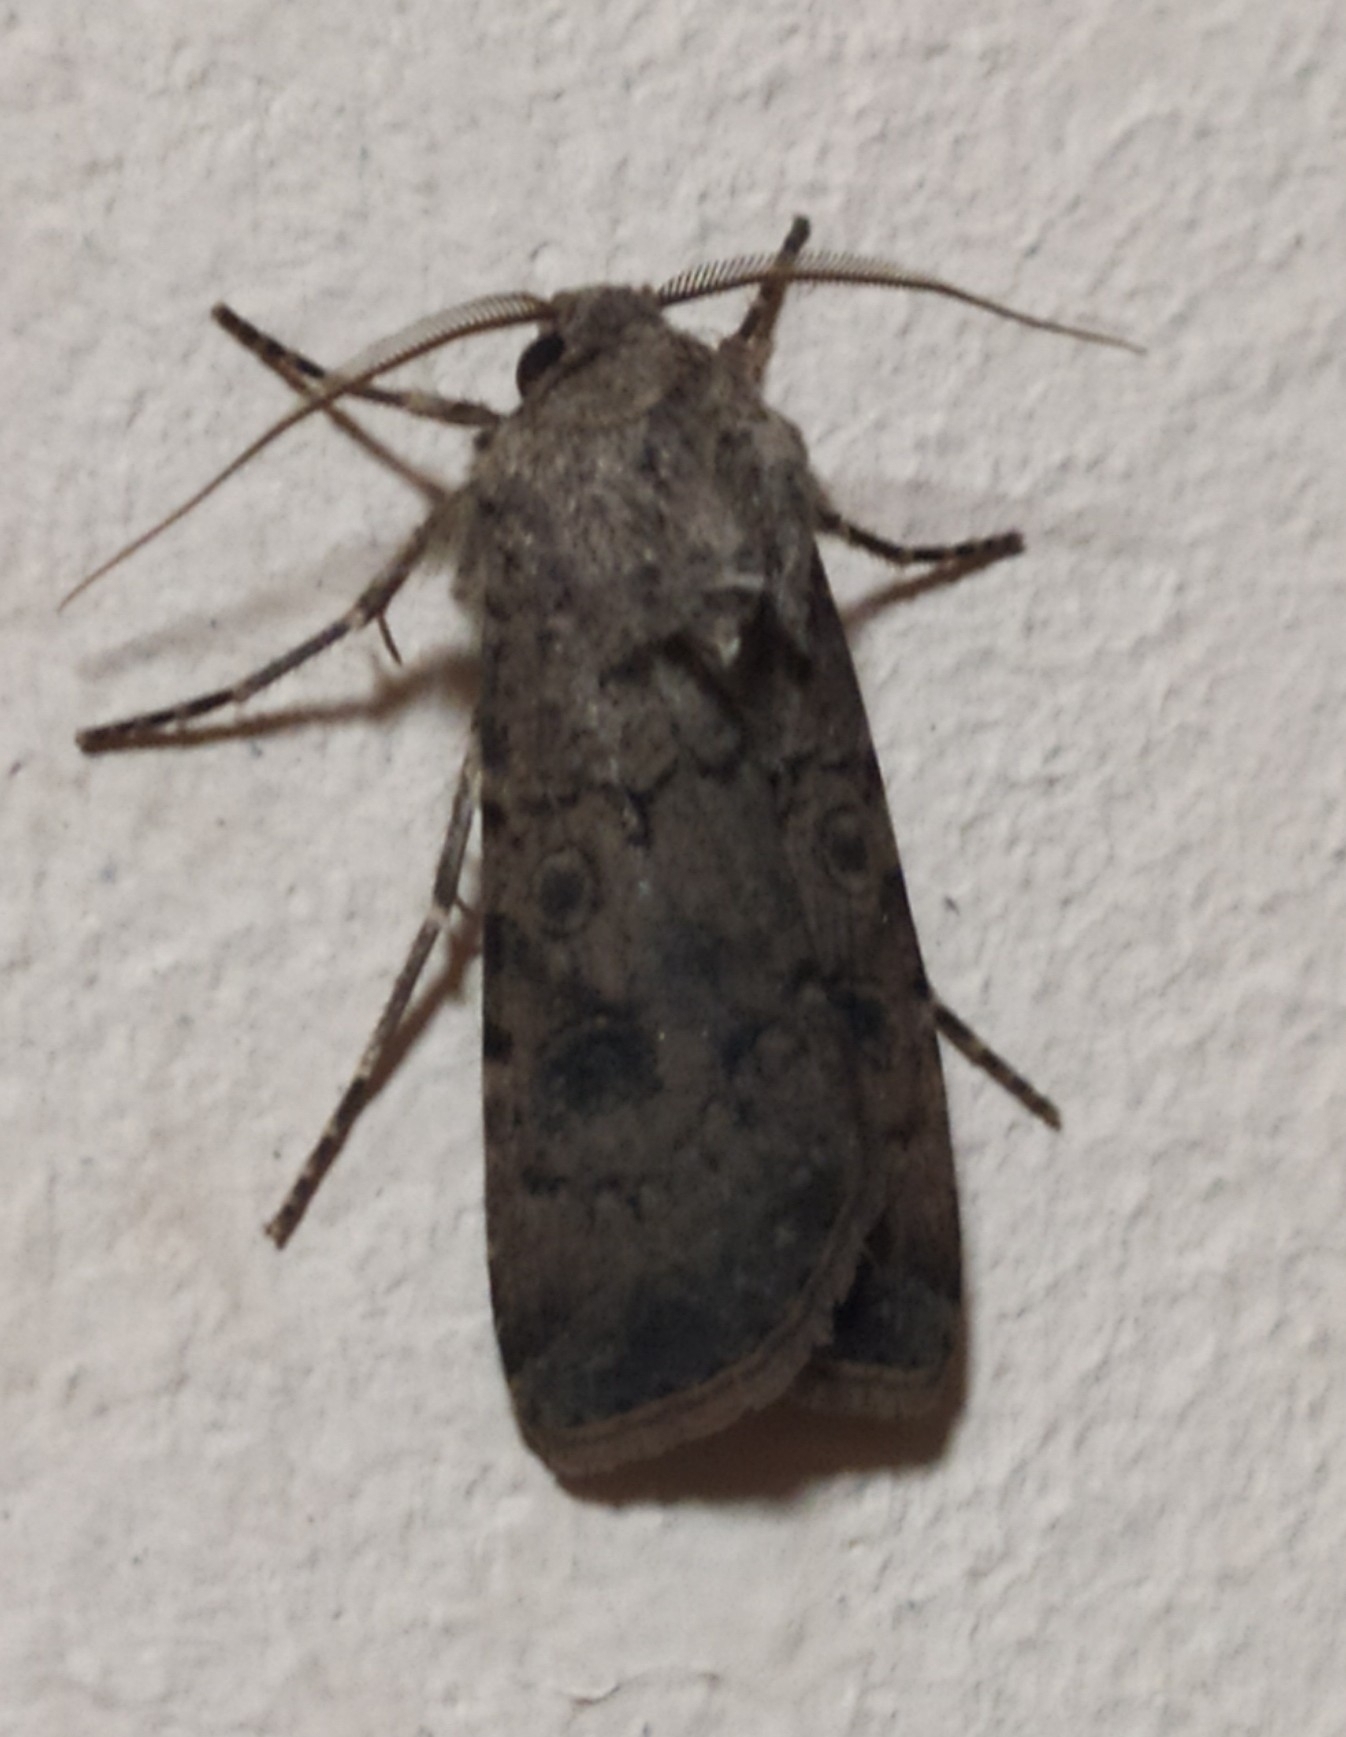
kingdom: Animalia
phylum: Arthropoda
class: Insecta
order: Lepidoptera
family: Noctuidae
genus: Agrotis
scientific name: Agrotis segetum
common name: Turnip moth
